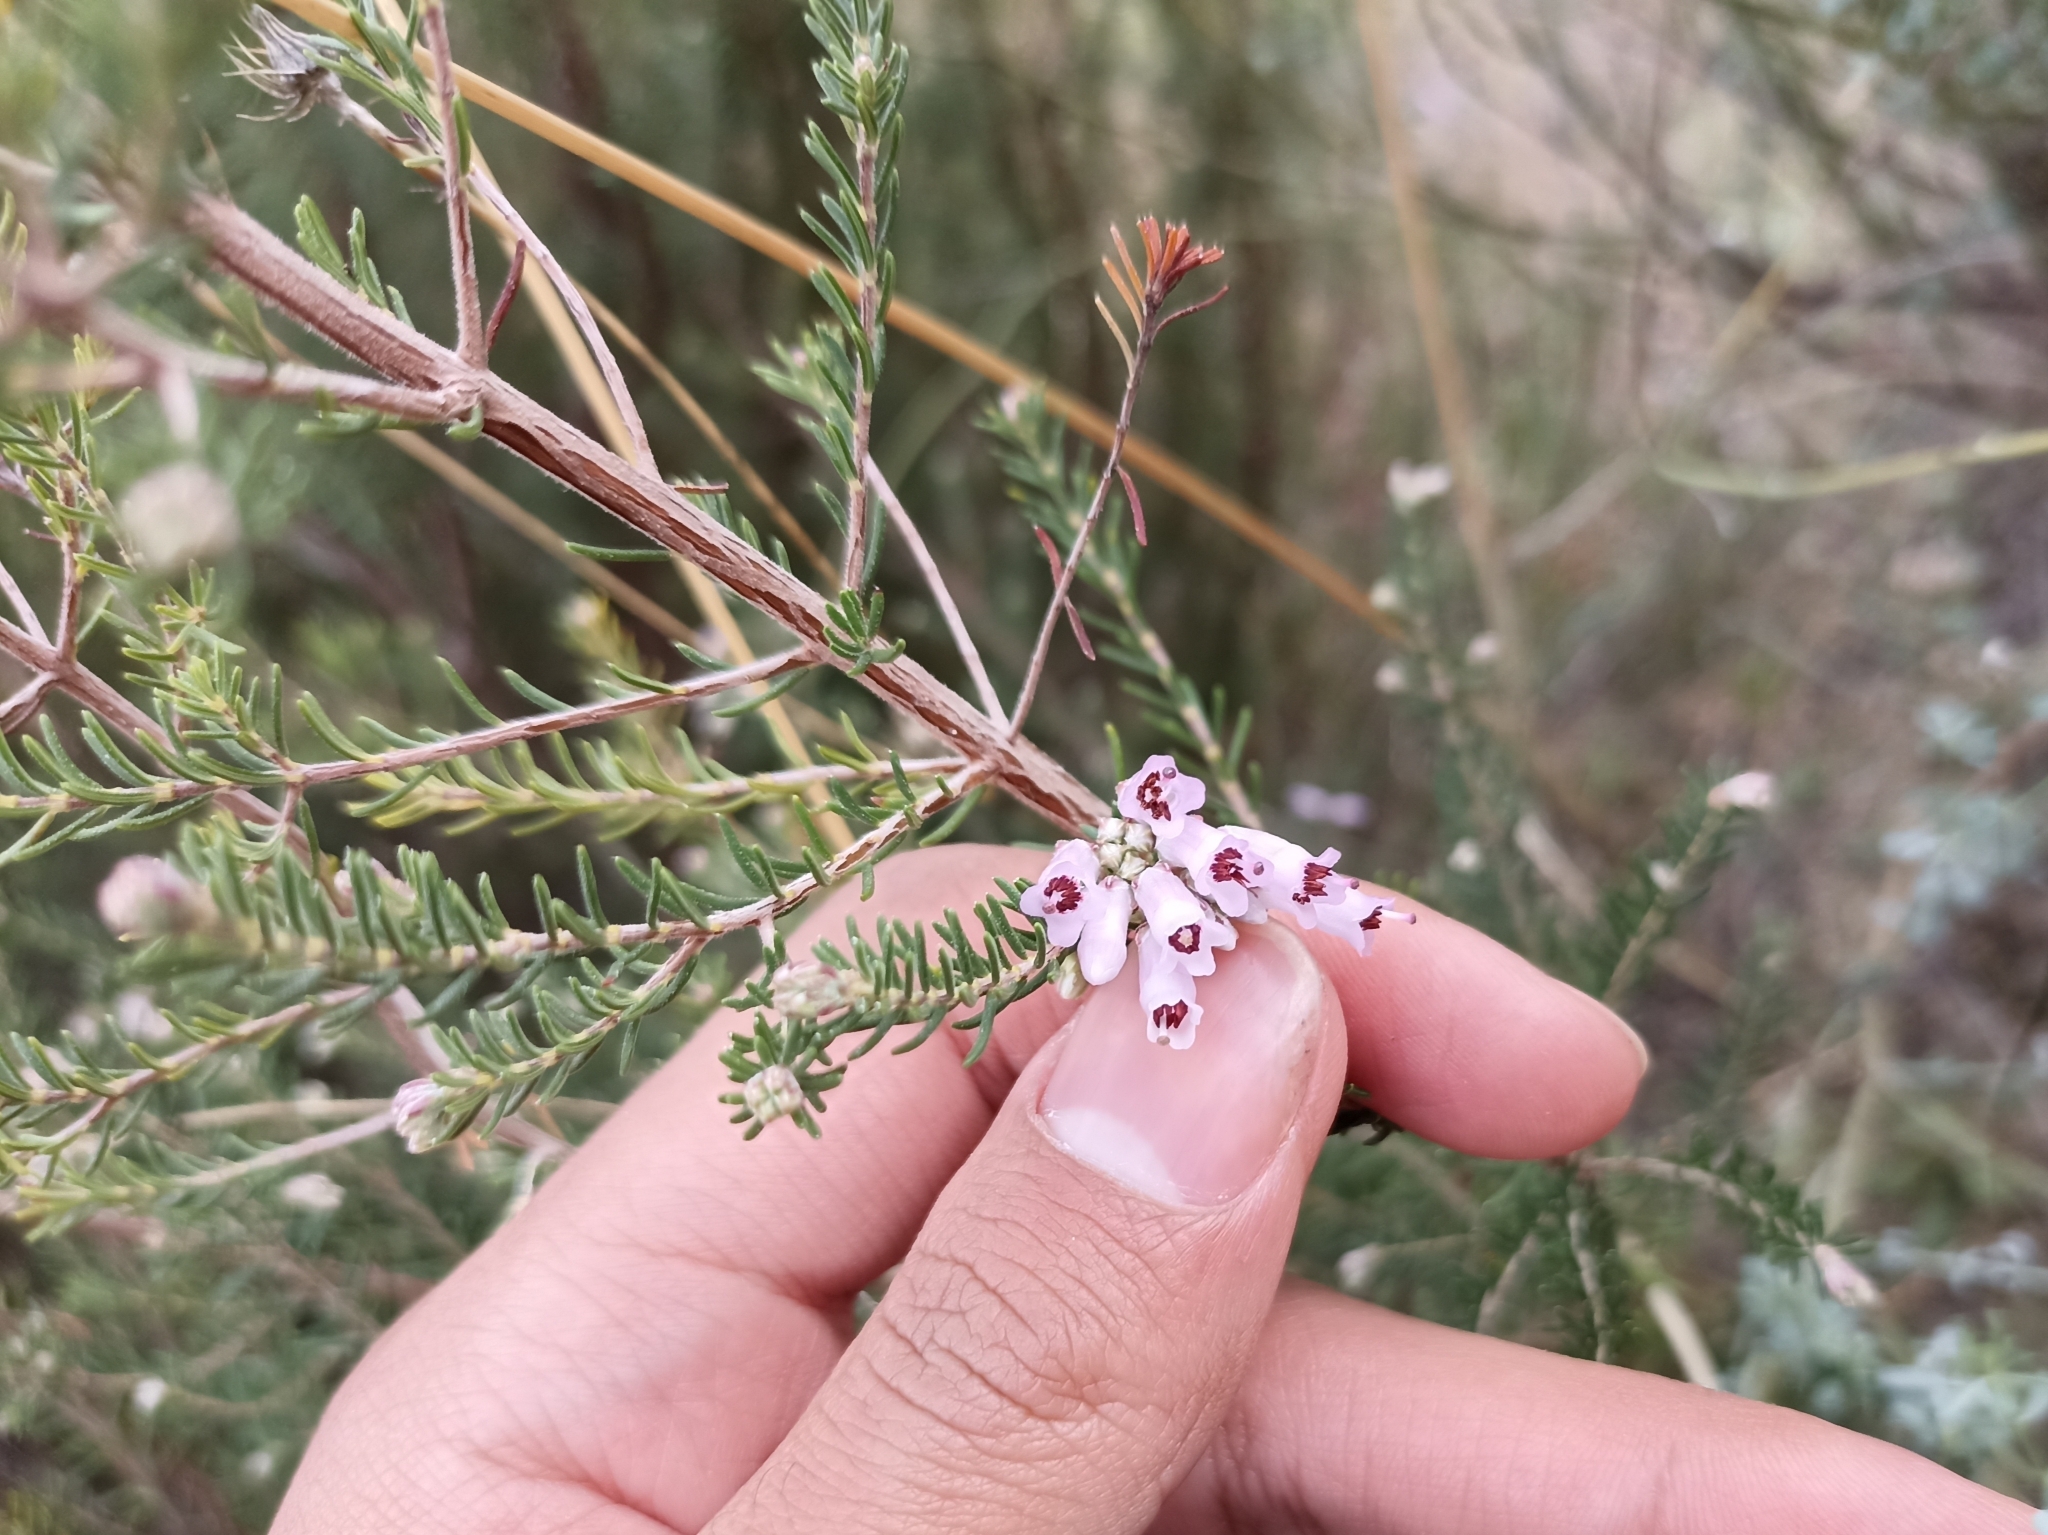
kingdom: Plantae
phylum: Tracheophyta
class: Magnoliopsida
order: Ericales
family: Ericaceae
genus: Erica
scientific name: Erica australis
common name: Spanish heath
